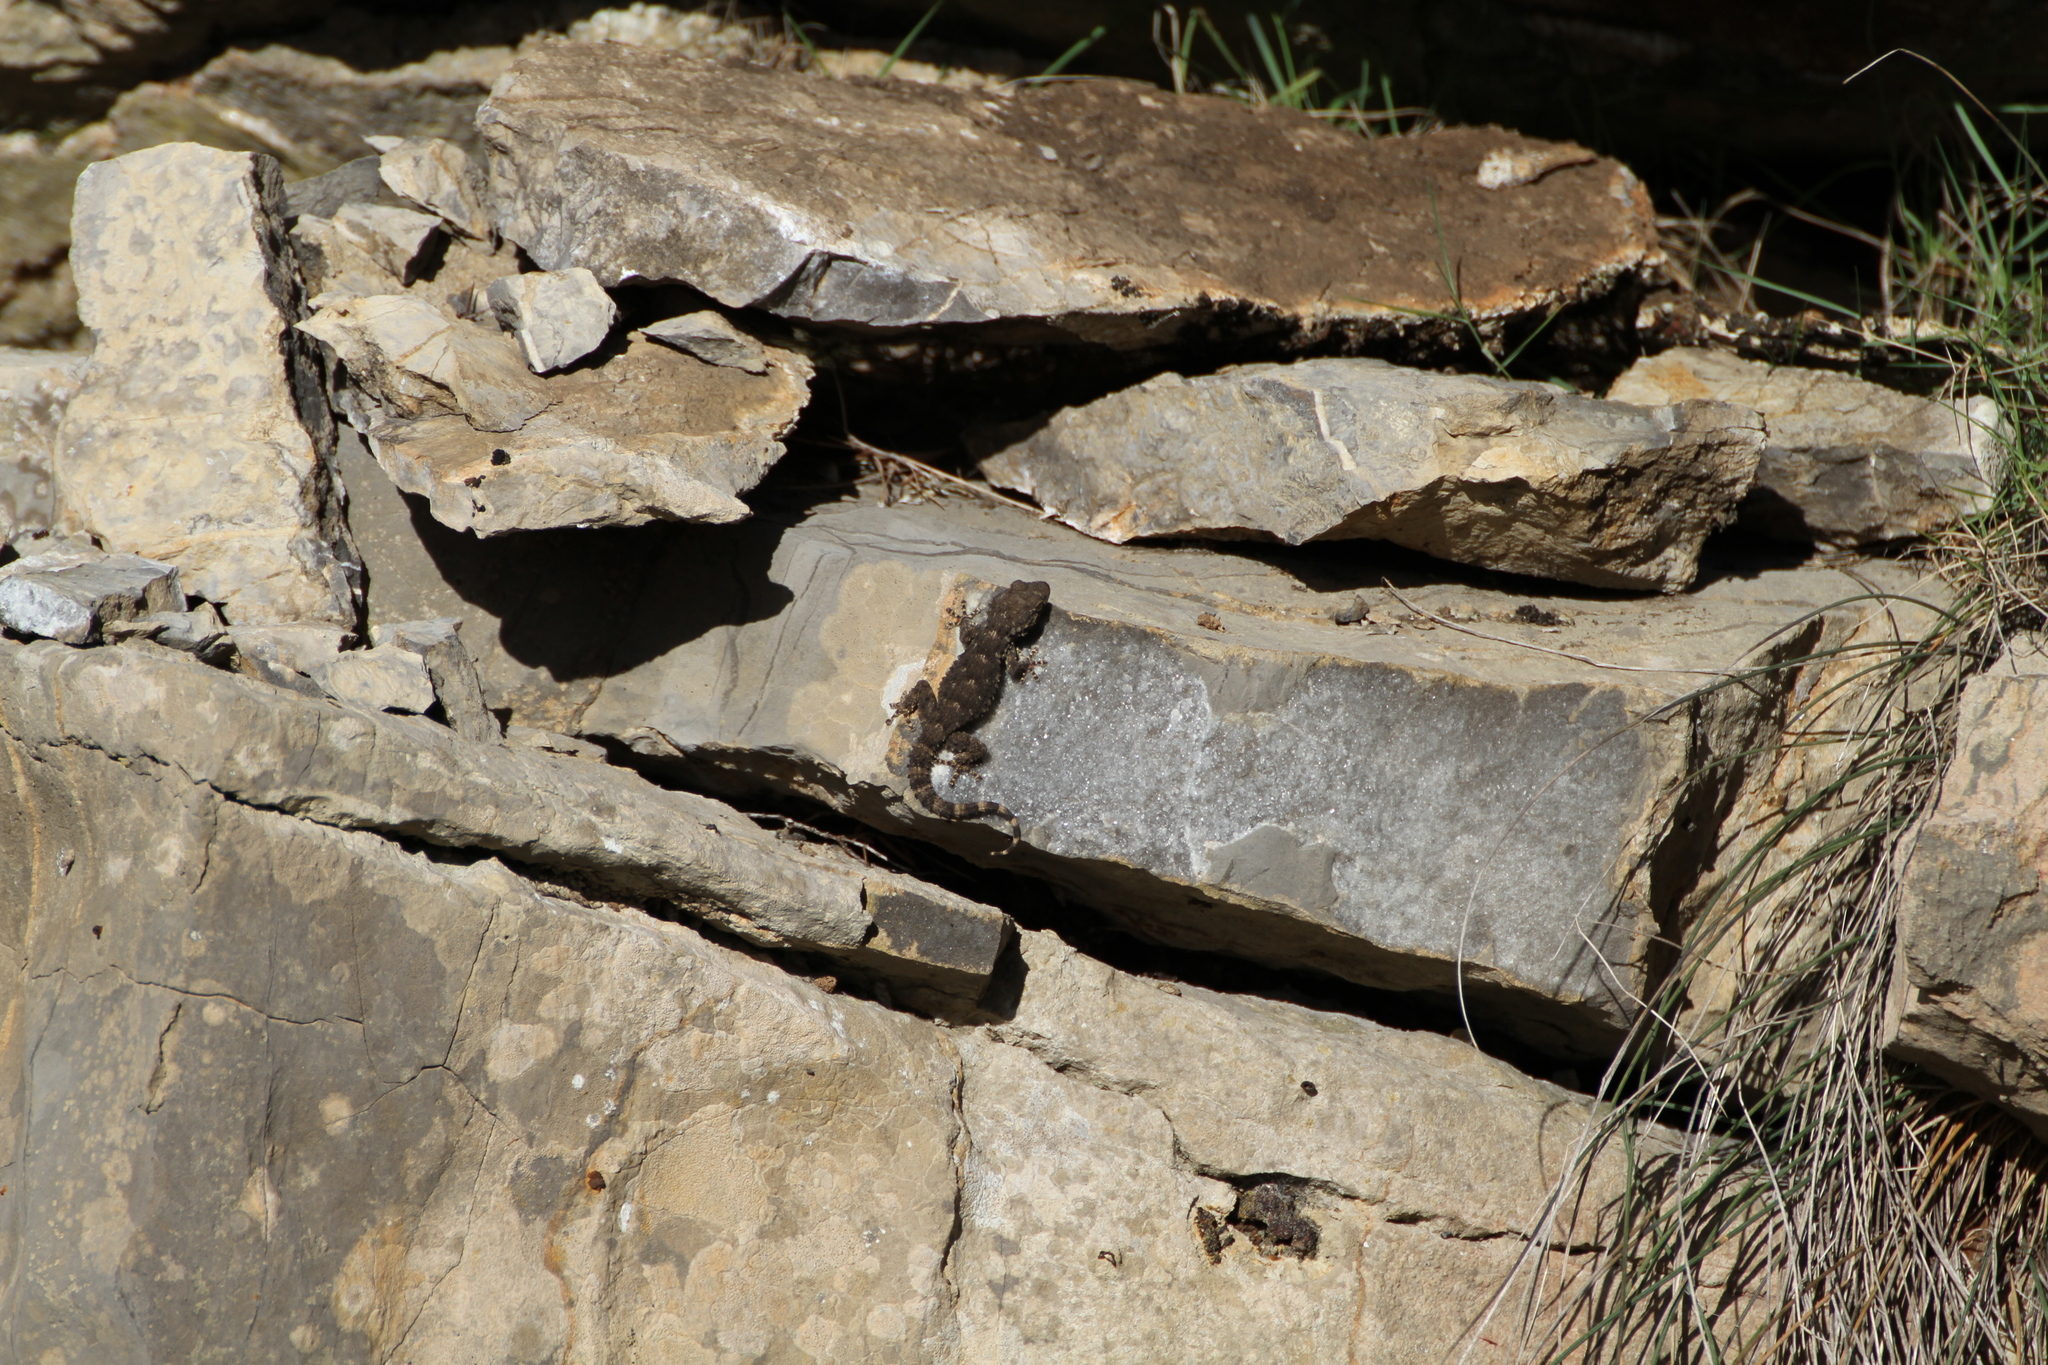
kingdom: Animalia
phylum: Chordata
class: Squamata
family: Phyllodactylidae
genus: Tarentola
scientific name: Tarentola mauritanica
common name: Moorish gecko
